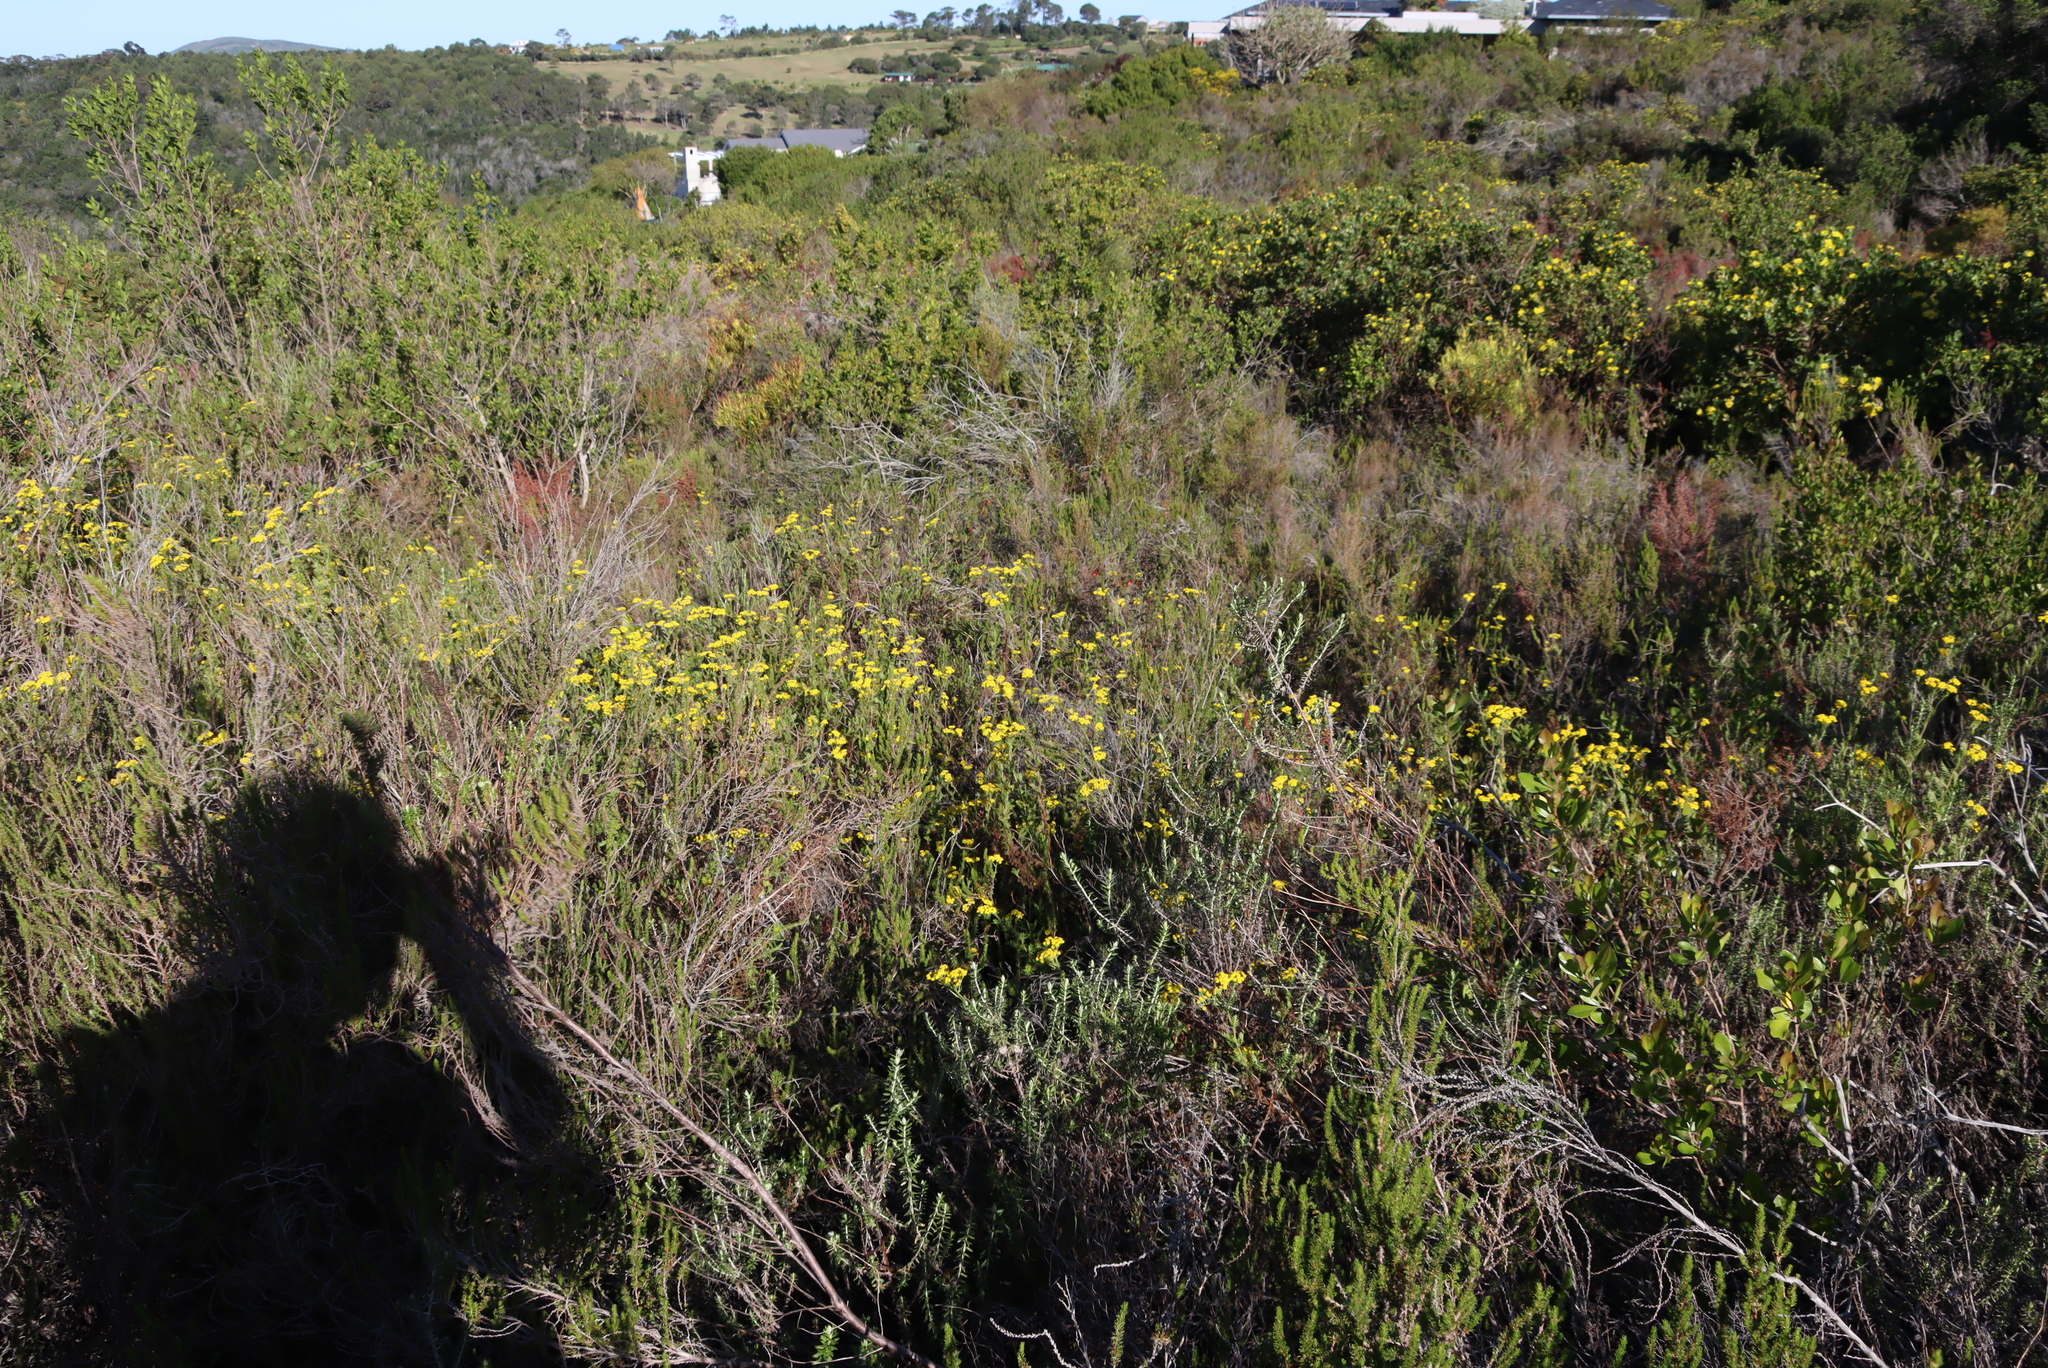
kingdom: Plantae
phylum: Tracheophyta
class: Magnoliopsida
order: Asterales
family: Asteraceae
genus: Hippia
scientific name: Hippia frutescens
